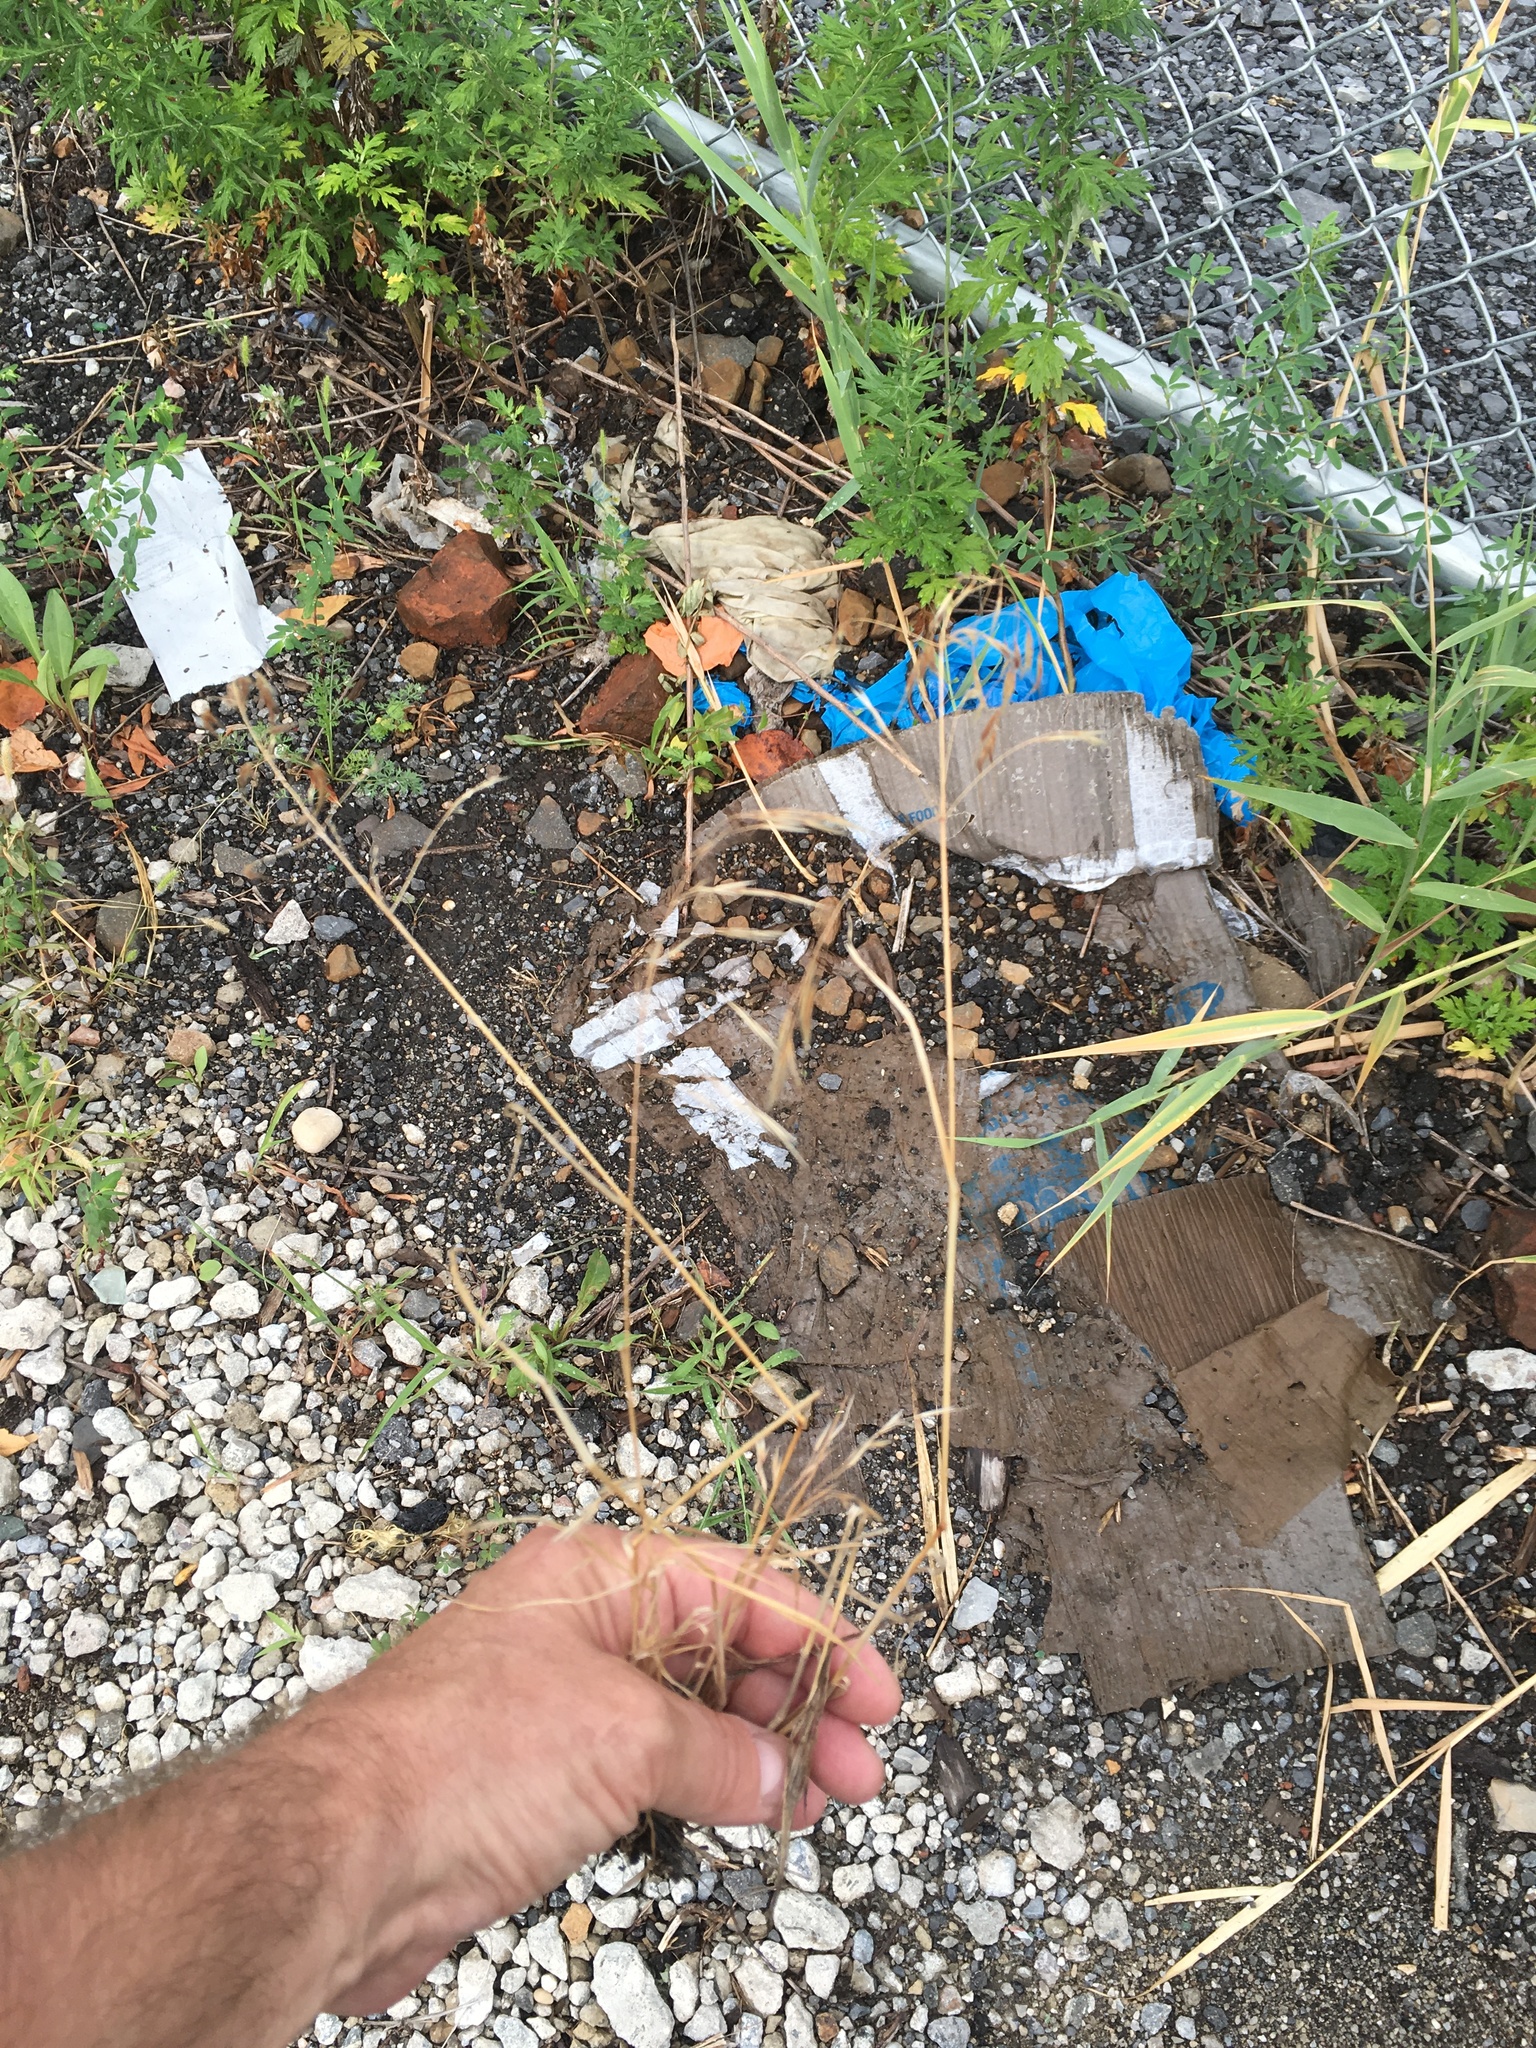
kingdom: Plantae
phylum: Tracheophyta
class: Liliopsida
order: Poales
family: Poaceae
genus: Bromus
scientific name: Bromus tectorum
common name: Cheatgrass
